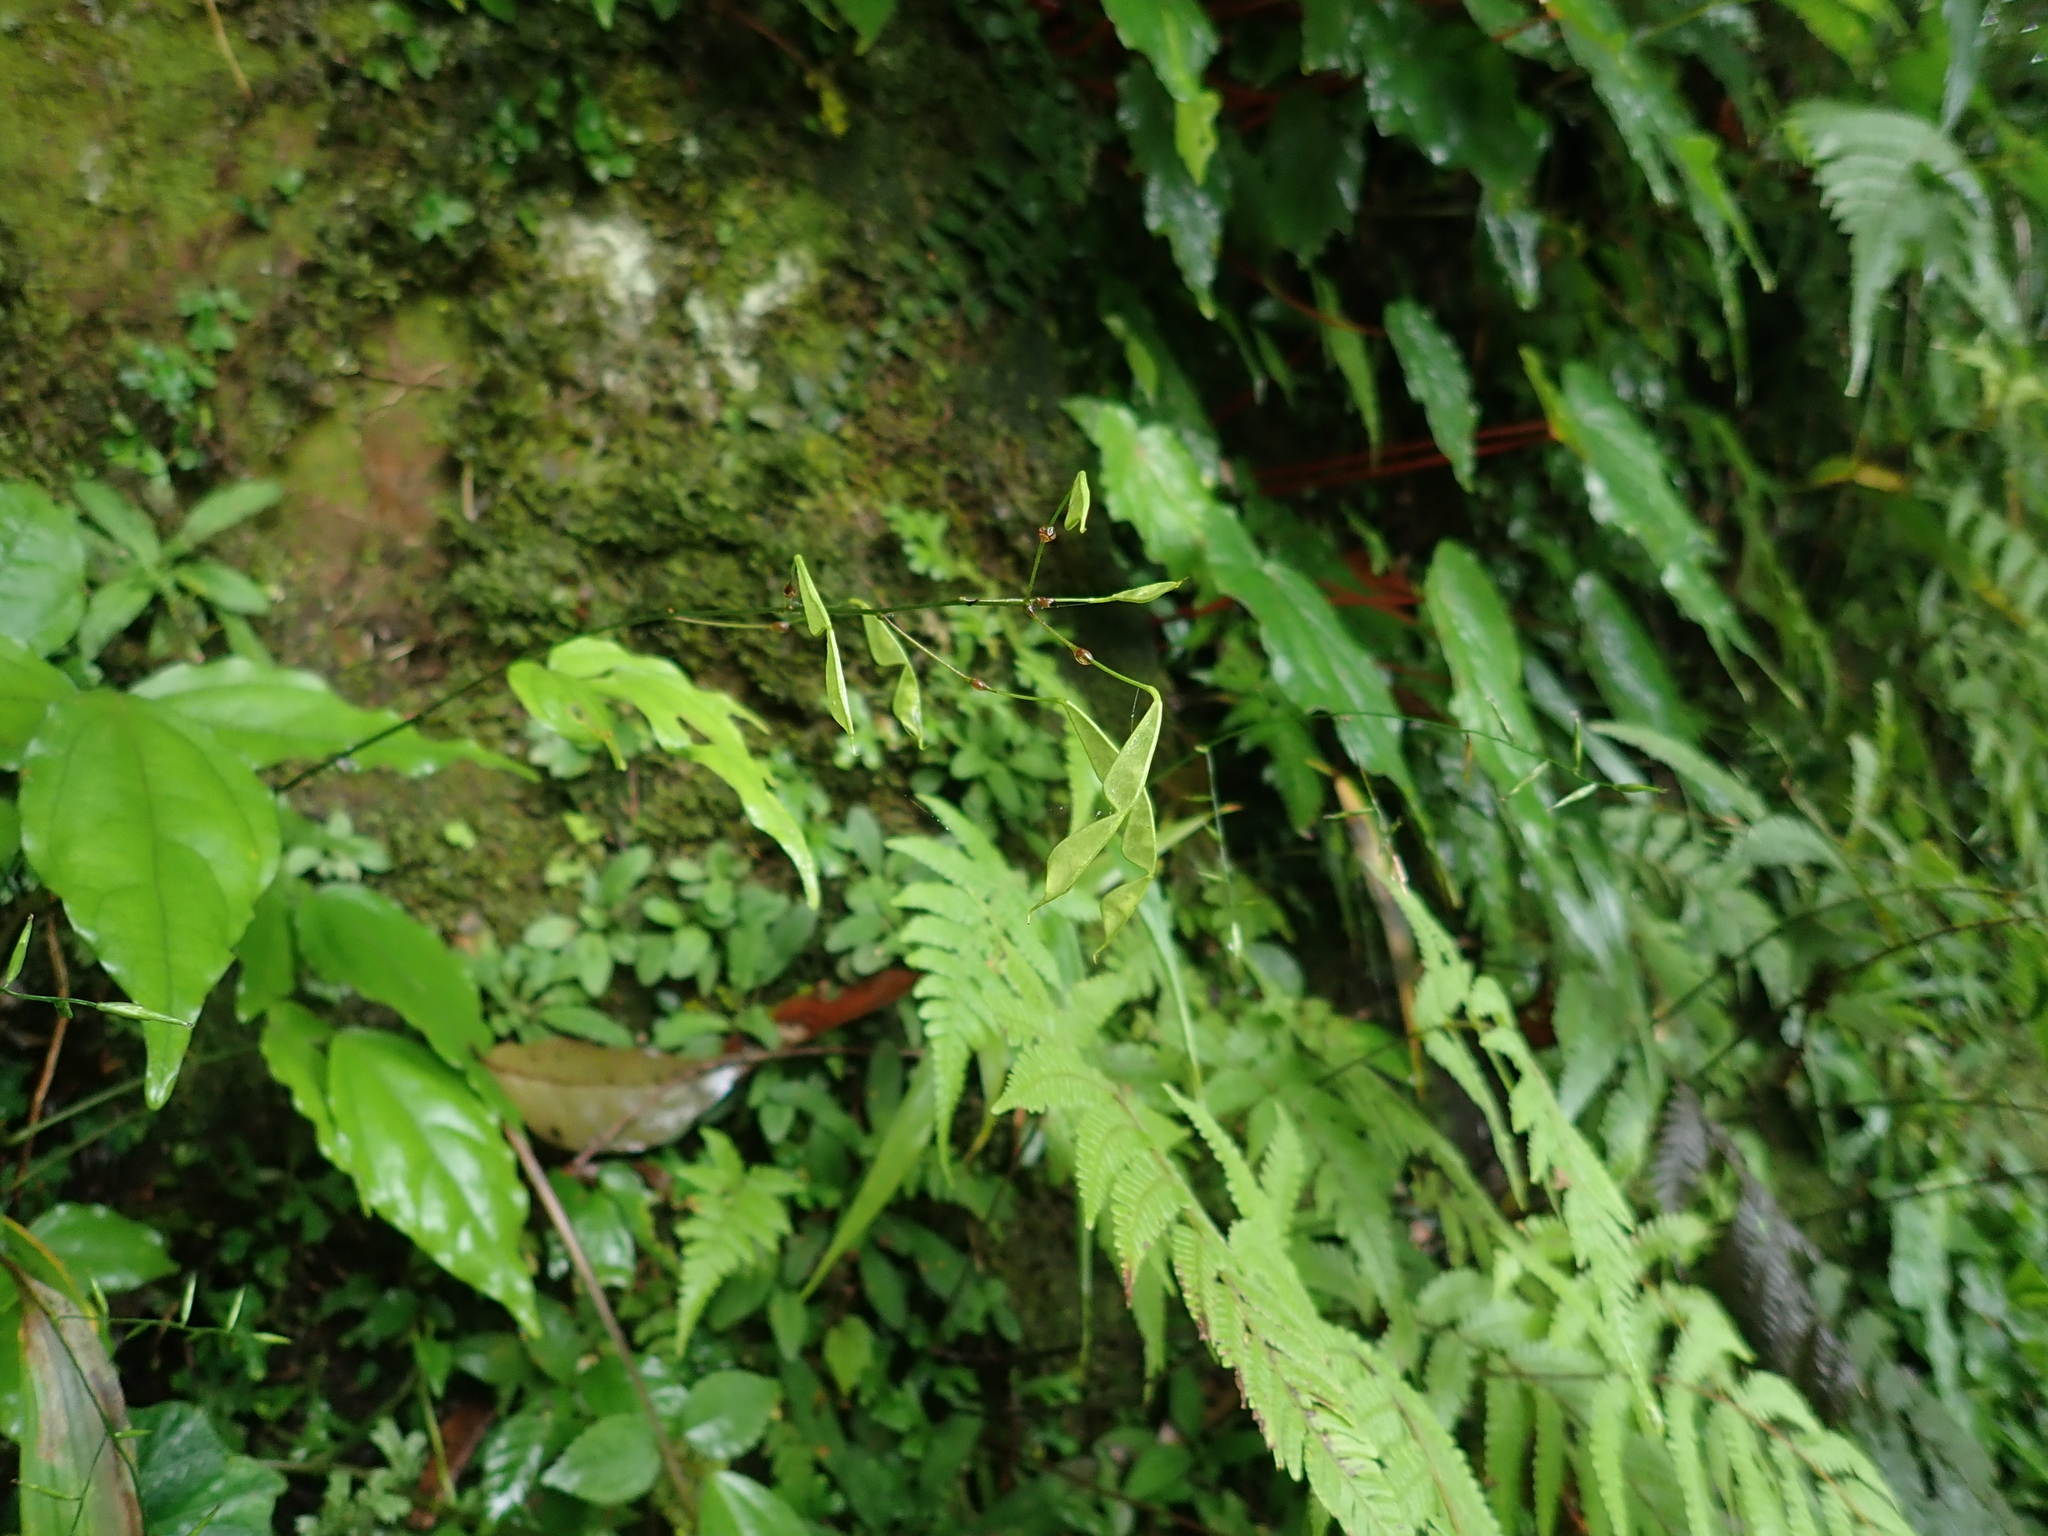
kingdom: Plantae
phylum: Tracheophyta
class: Magnoliopsida
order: Fabales
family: Fabaceae
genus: Hylodesmum
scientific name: Hylodesmum leptopus
